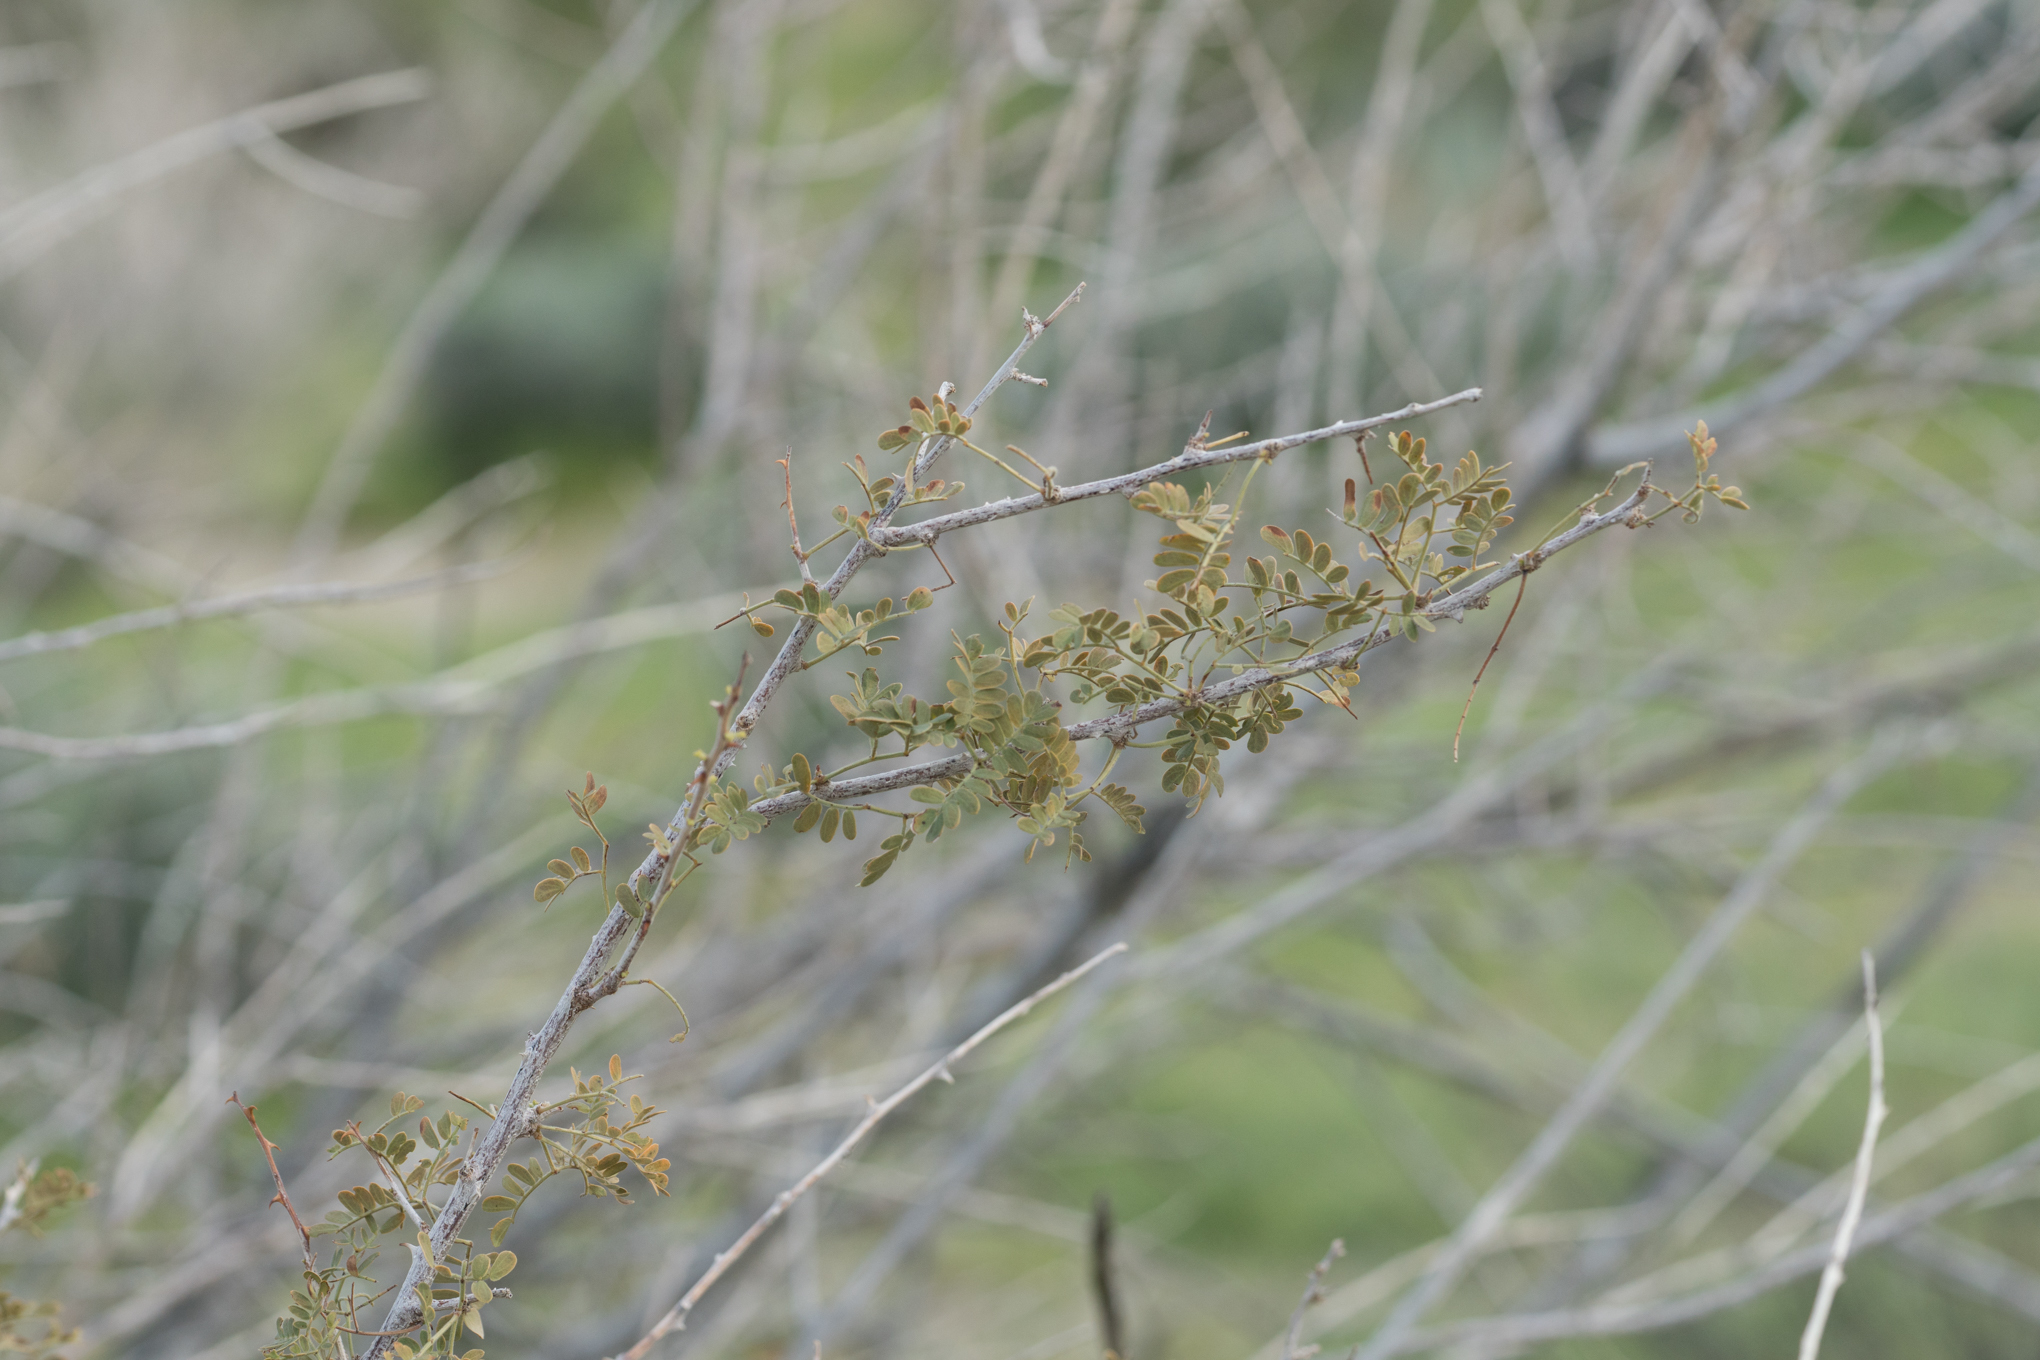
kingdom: Plantae
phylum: Tracheophyta
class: Magnoliopsida
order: Fabales
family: Fabaceae
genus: Senegalia
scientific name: Senegalia greggii
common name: Texas-mimosa
